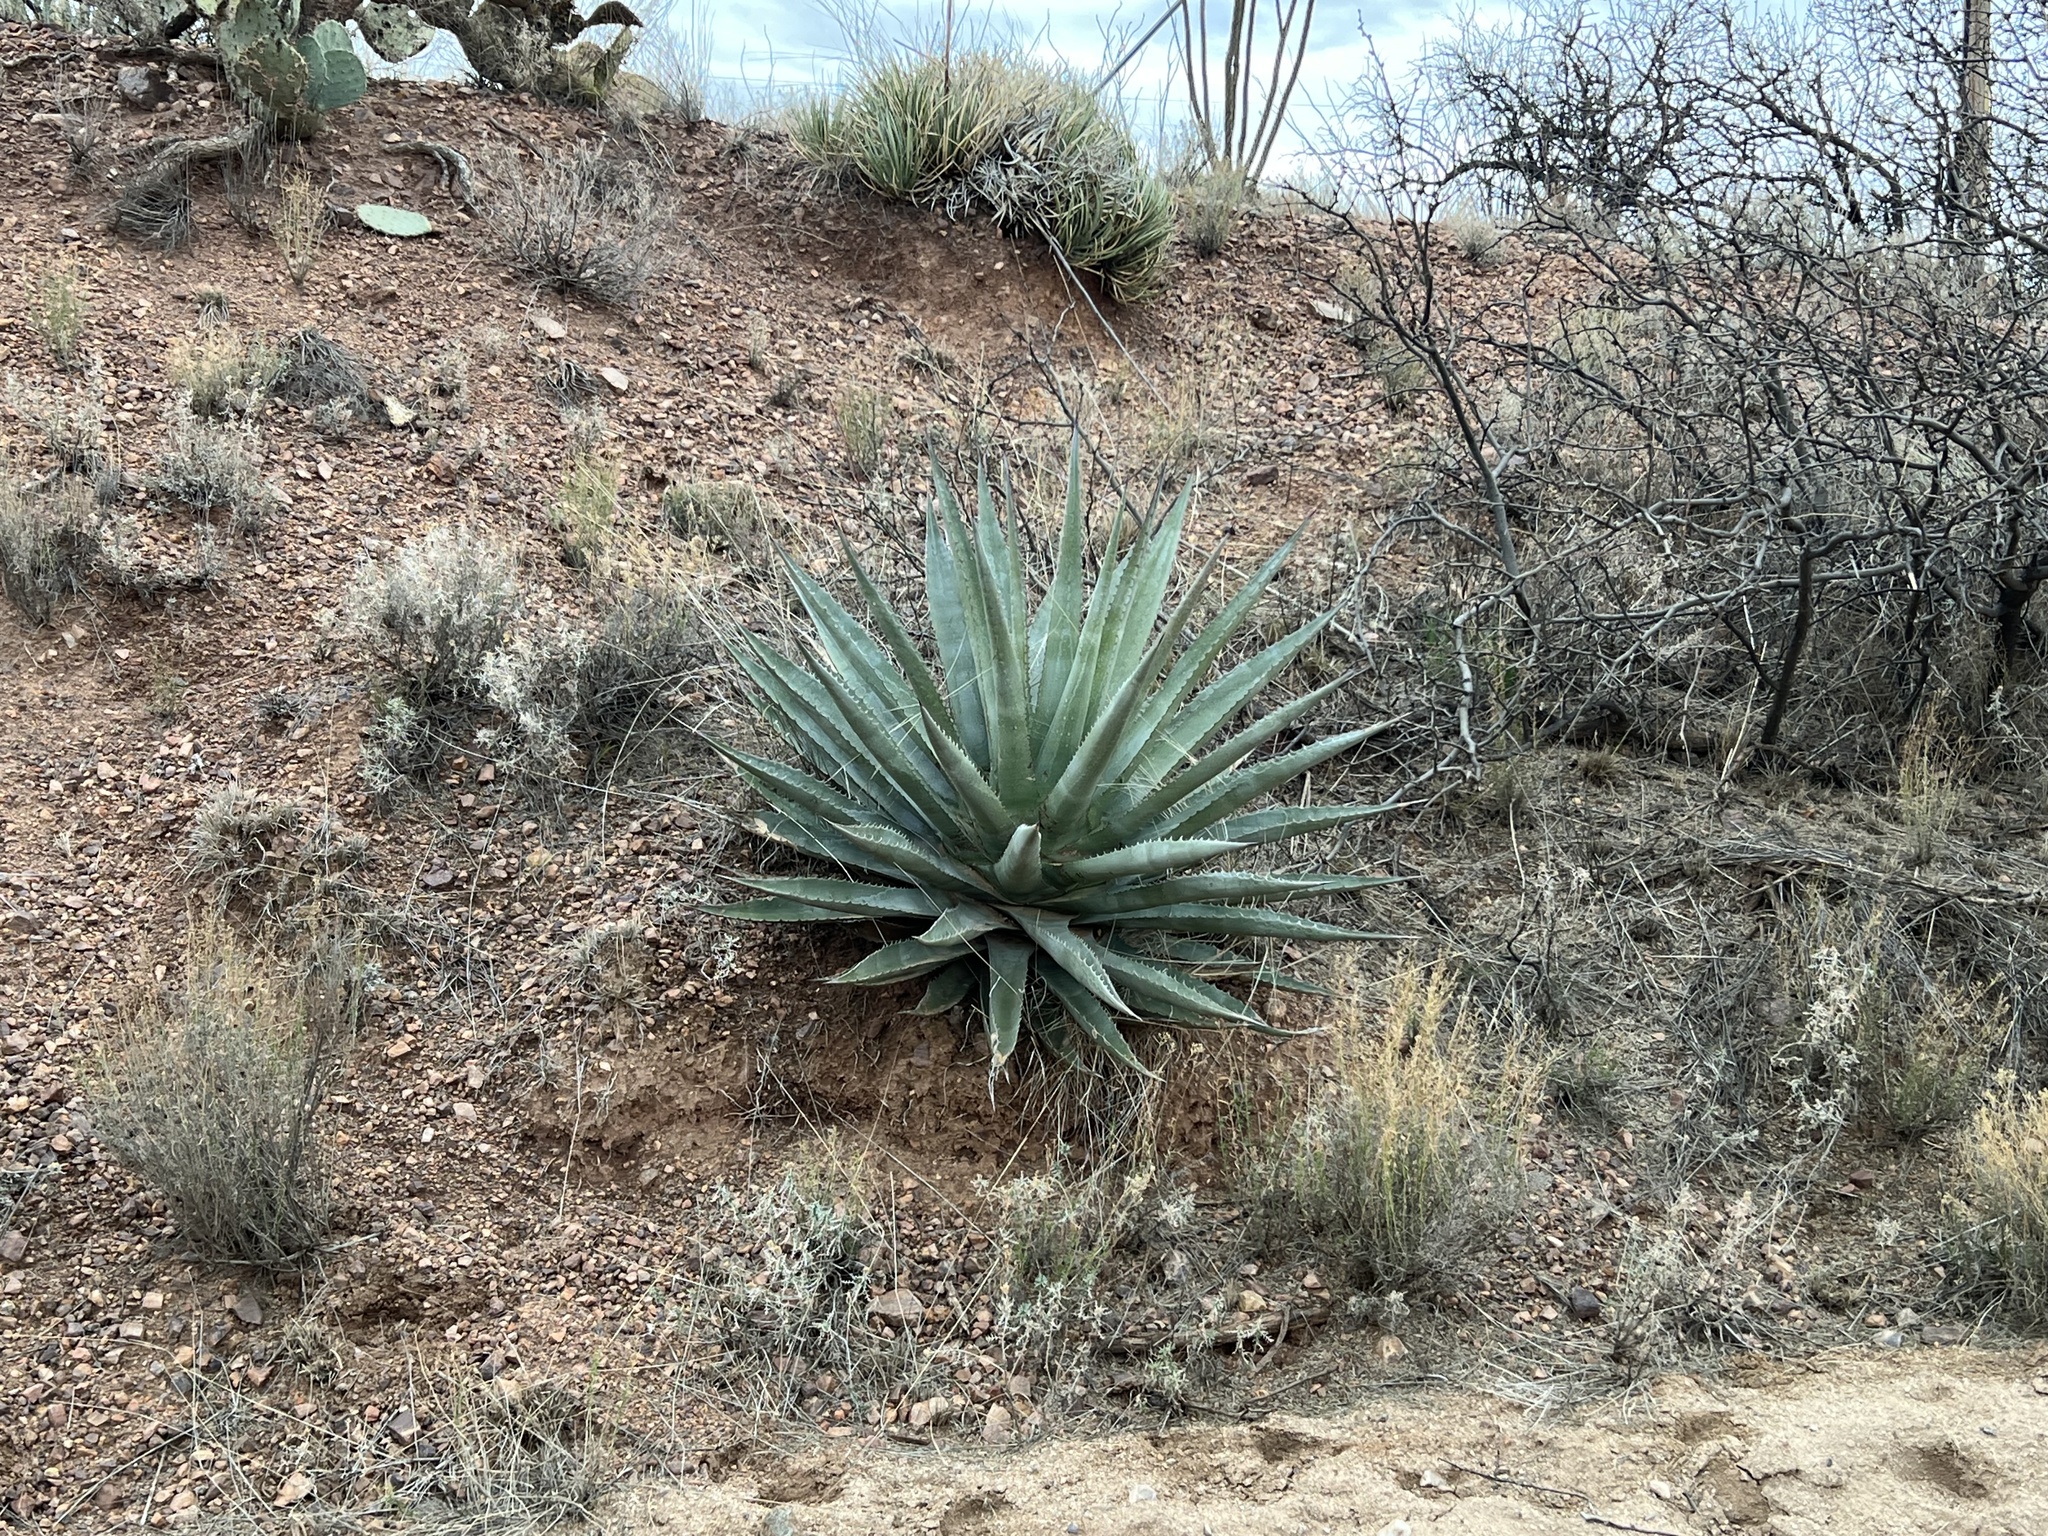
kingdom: Plantae
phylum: Tracheophyta
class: Liliopsida
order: Asparagales
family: Asparagaceae
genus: Agave
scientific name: Agave palmeri
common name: Palmer agave
